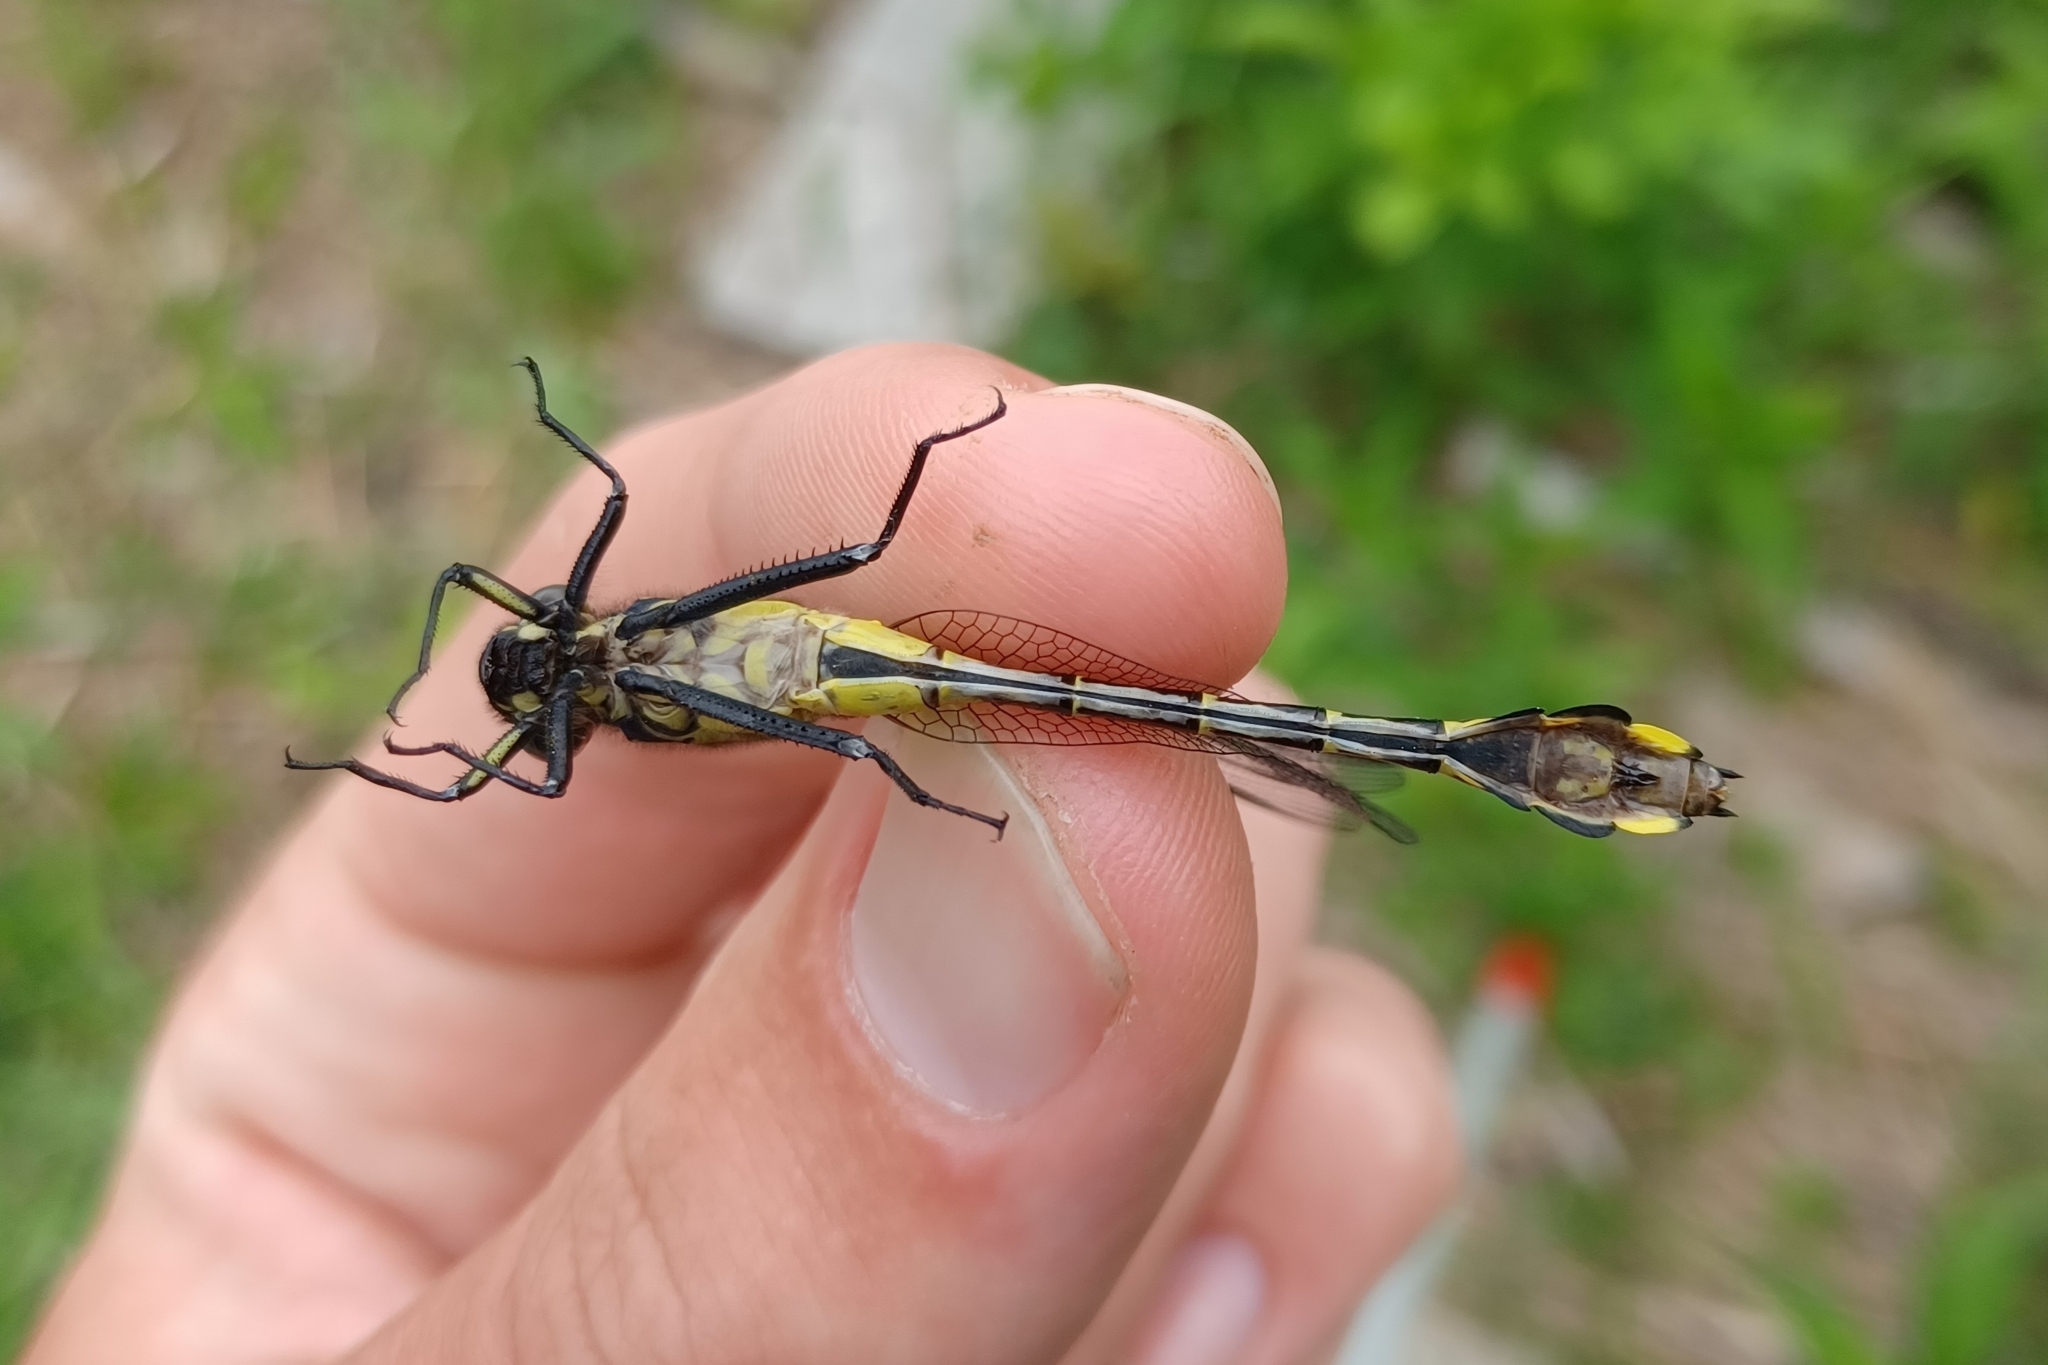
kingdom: Animalia
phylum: Arthropoda
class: Insecta
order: Odonata
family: Gomphidae
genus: Gomphurus
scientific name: Gomphurus vastus
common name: Cobra clubtail
